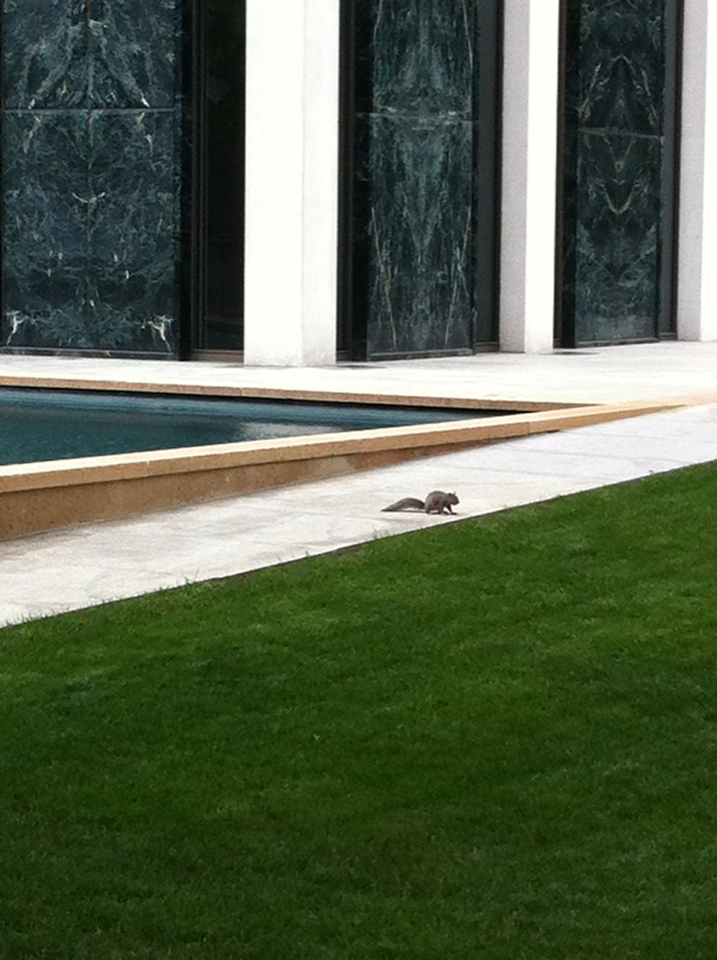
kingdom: Animalia
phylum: Chordata
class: Mammalia
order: Rodentia
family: Sciuridae
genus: Sciurus
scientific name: Sciurus carolinensis
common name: Eastern gray squirrel
